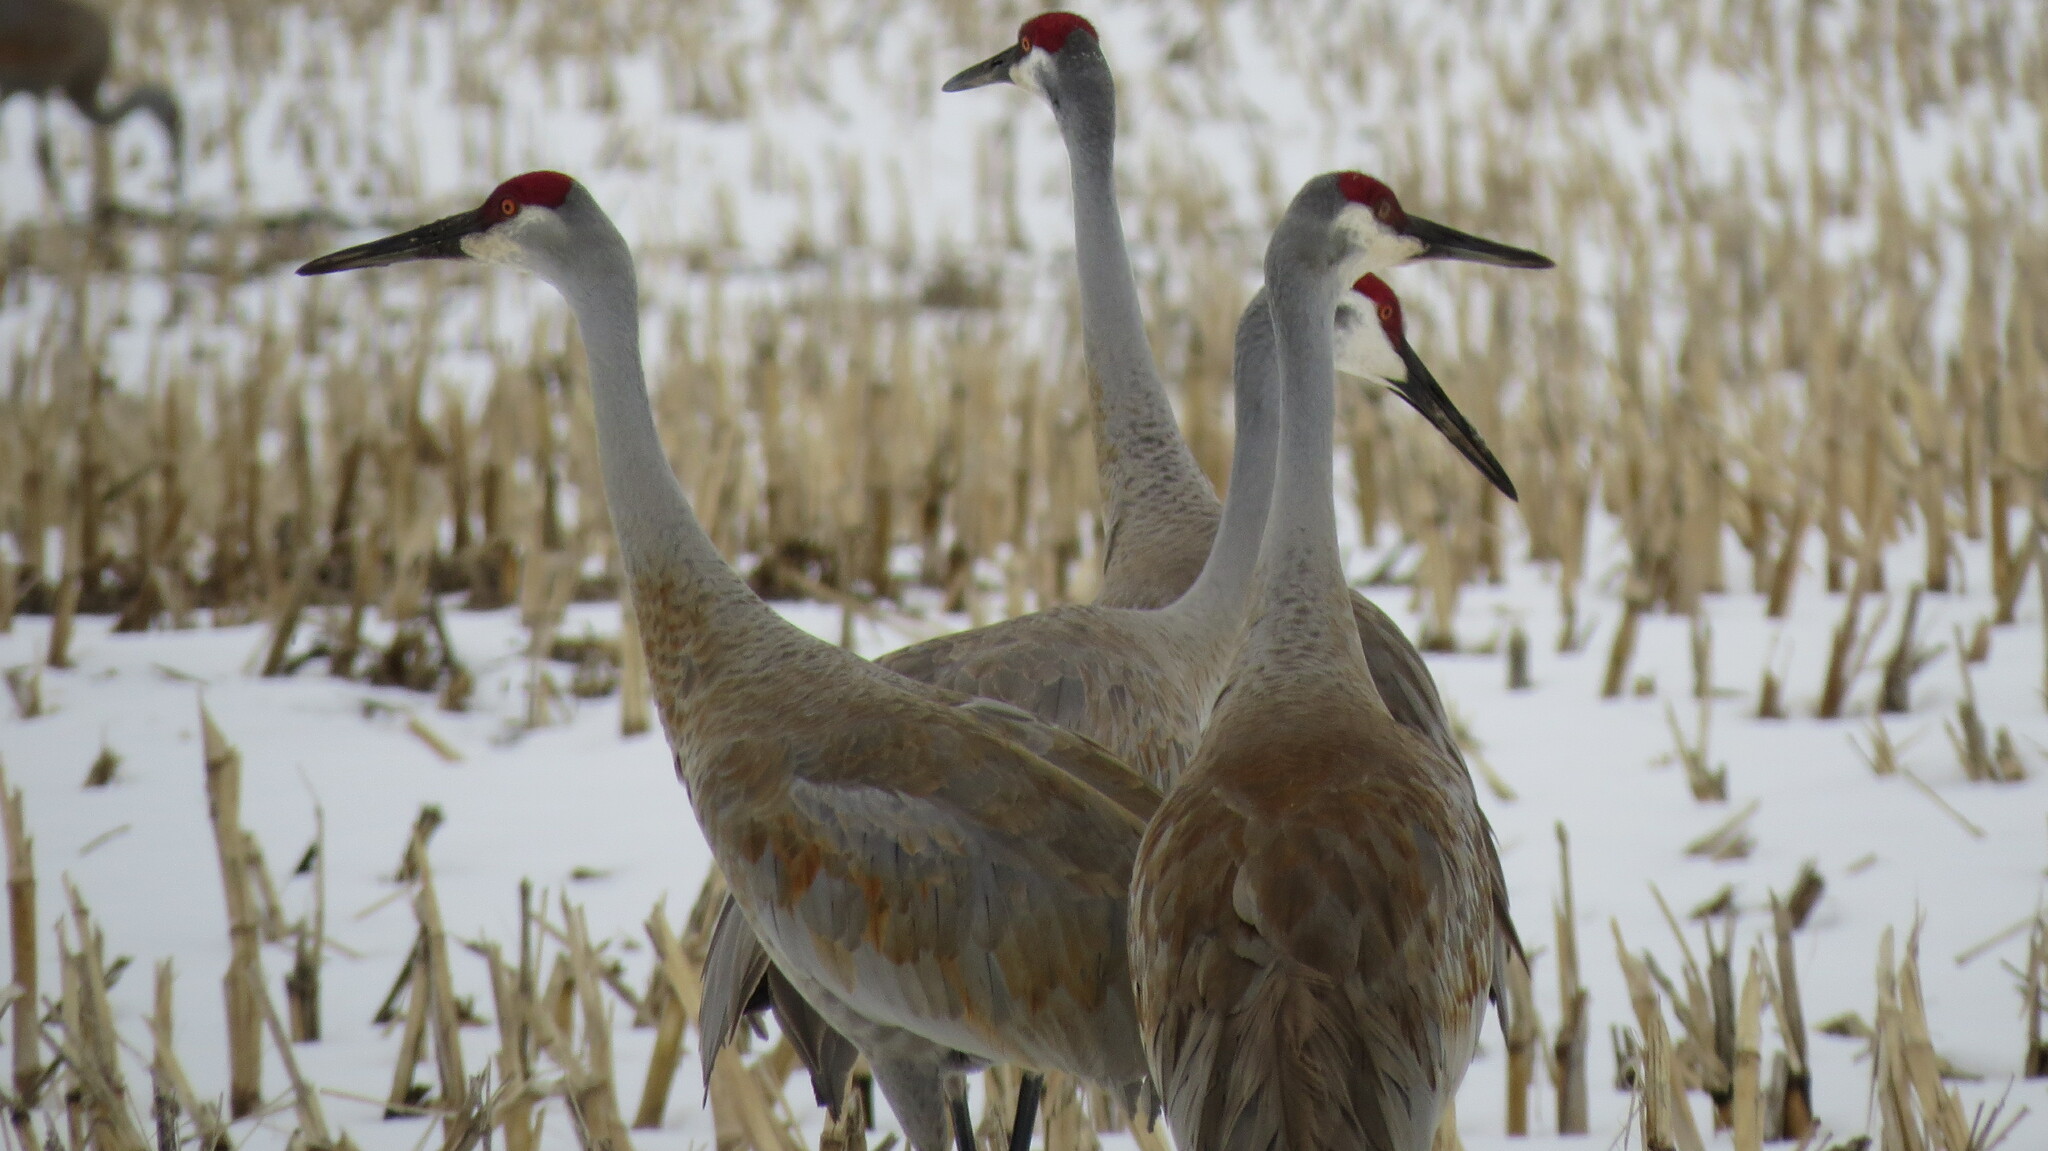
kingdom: Animalia
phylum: Chordata
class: Aves
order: Gruiformes
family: Gruidae
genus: Grus
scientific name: Grus canadensis
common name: Sandhill crane
